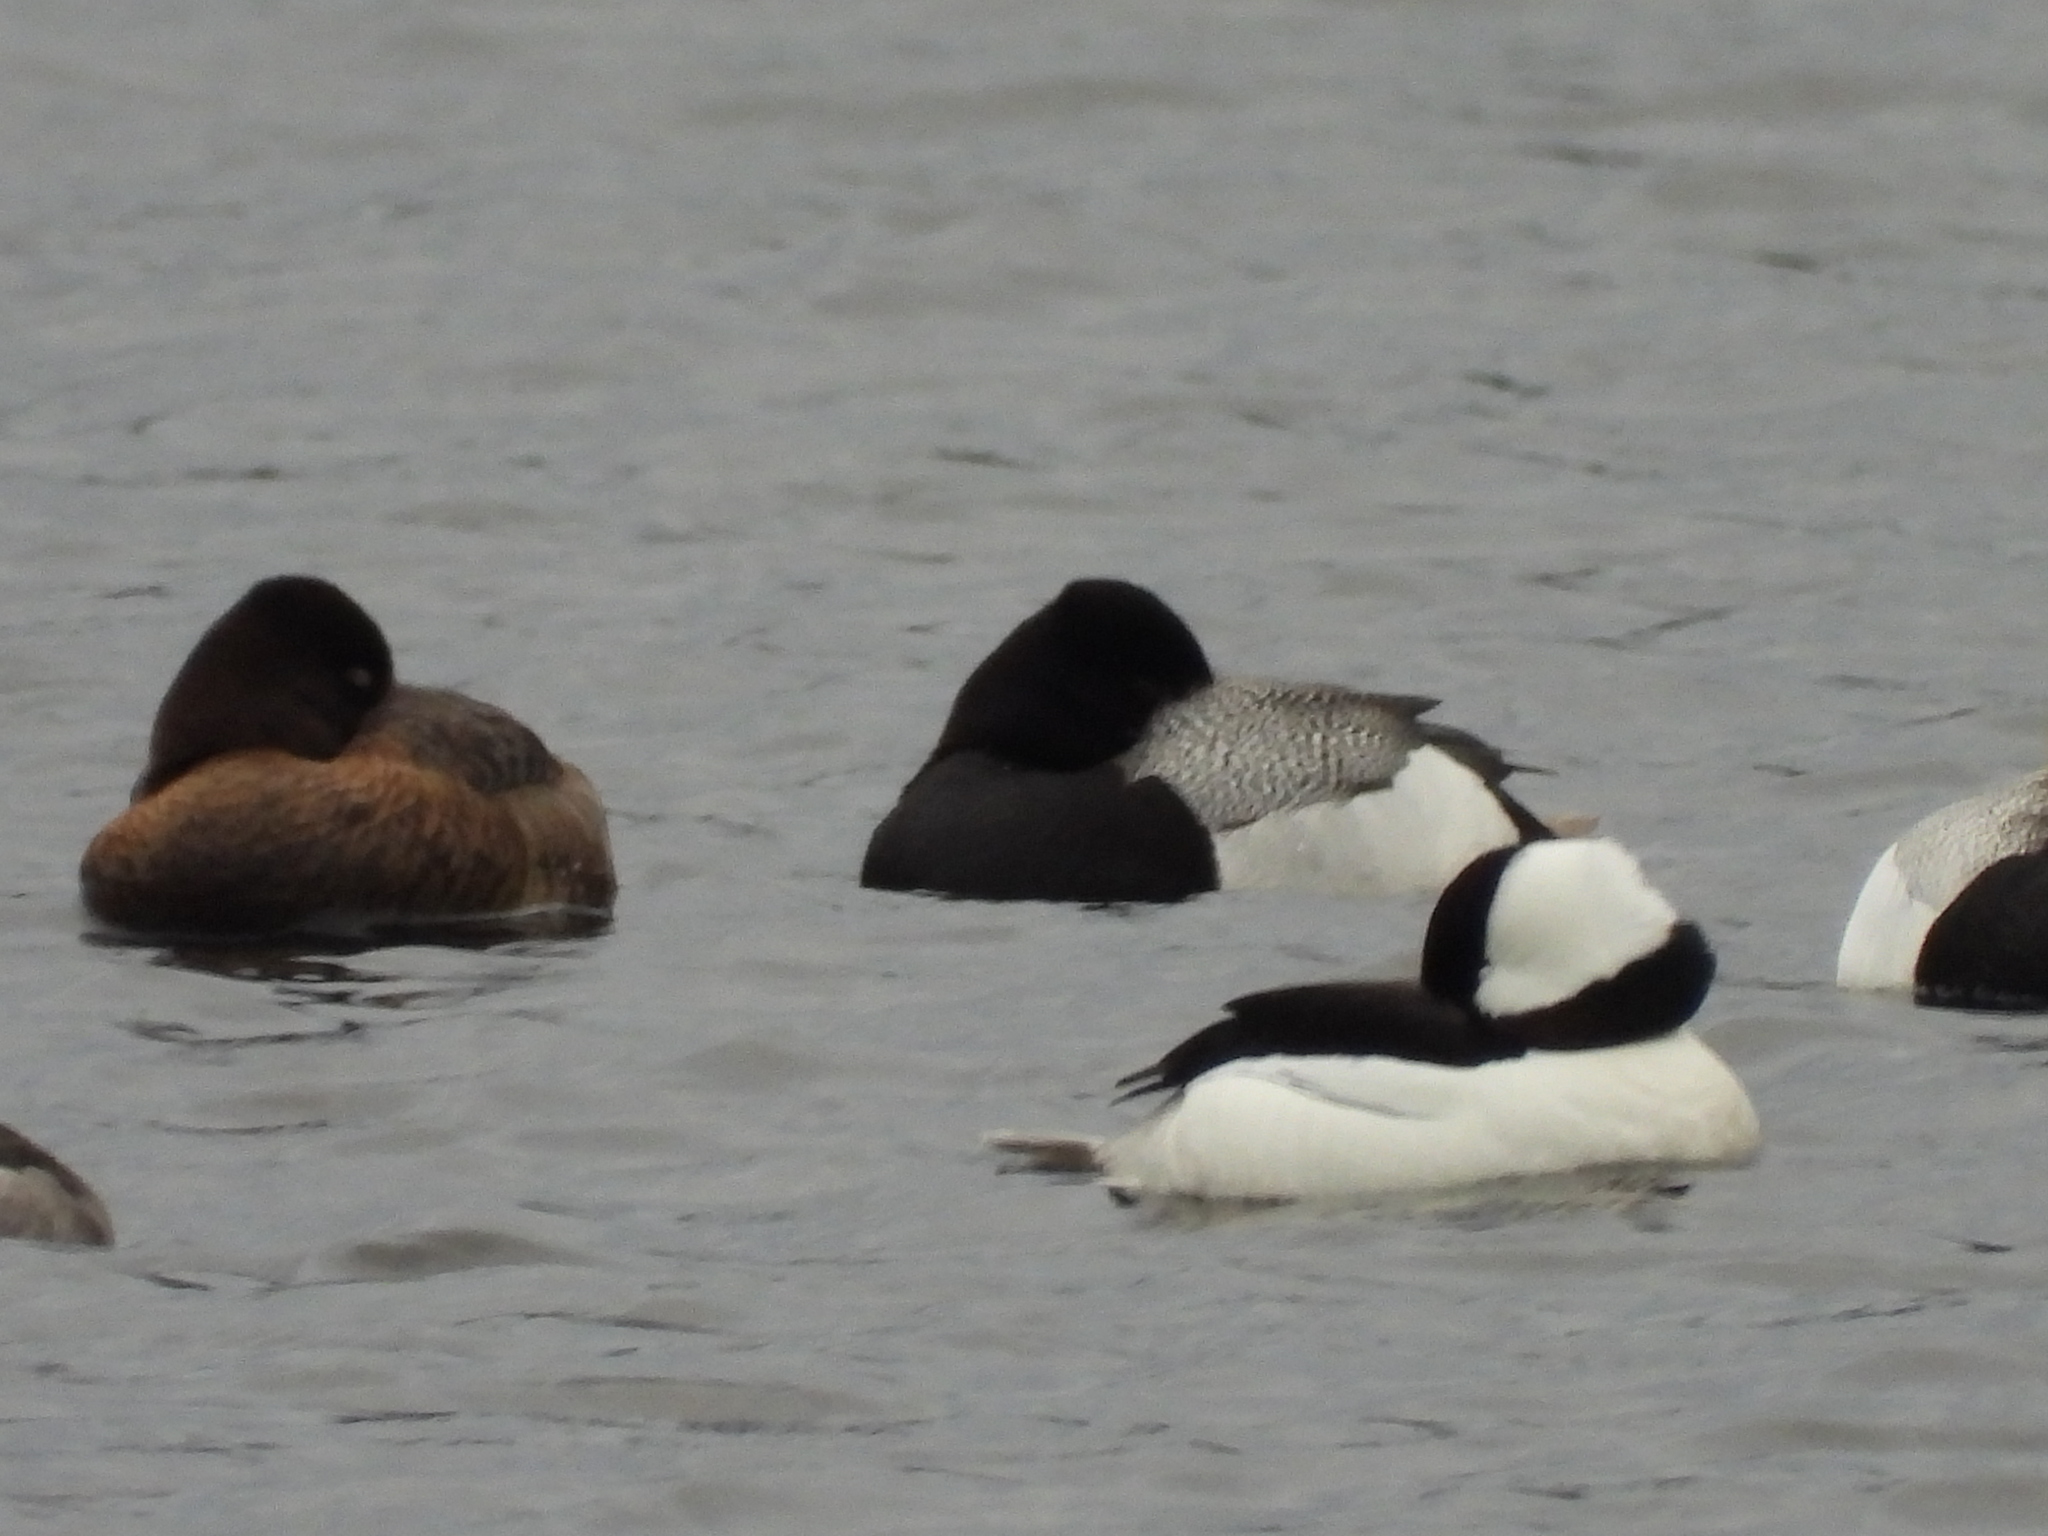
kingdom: Animalia
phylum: Chordata
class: Aves
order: Anseriformes
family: Anatidae
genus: Aythya
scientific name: Aythya affinis
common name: Lesser scaup
